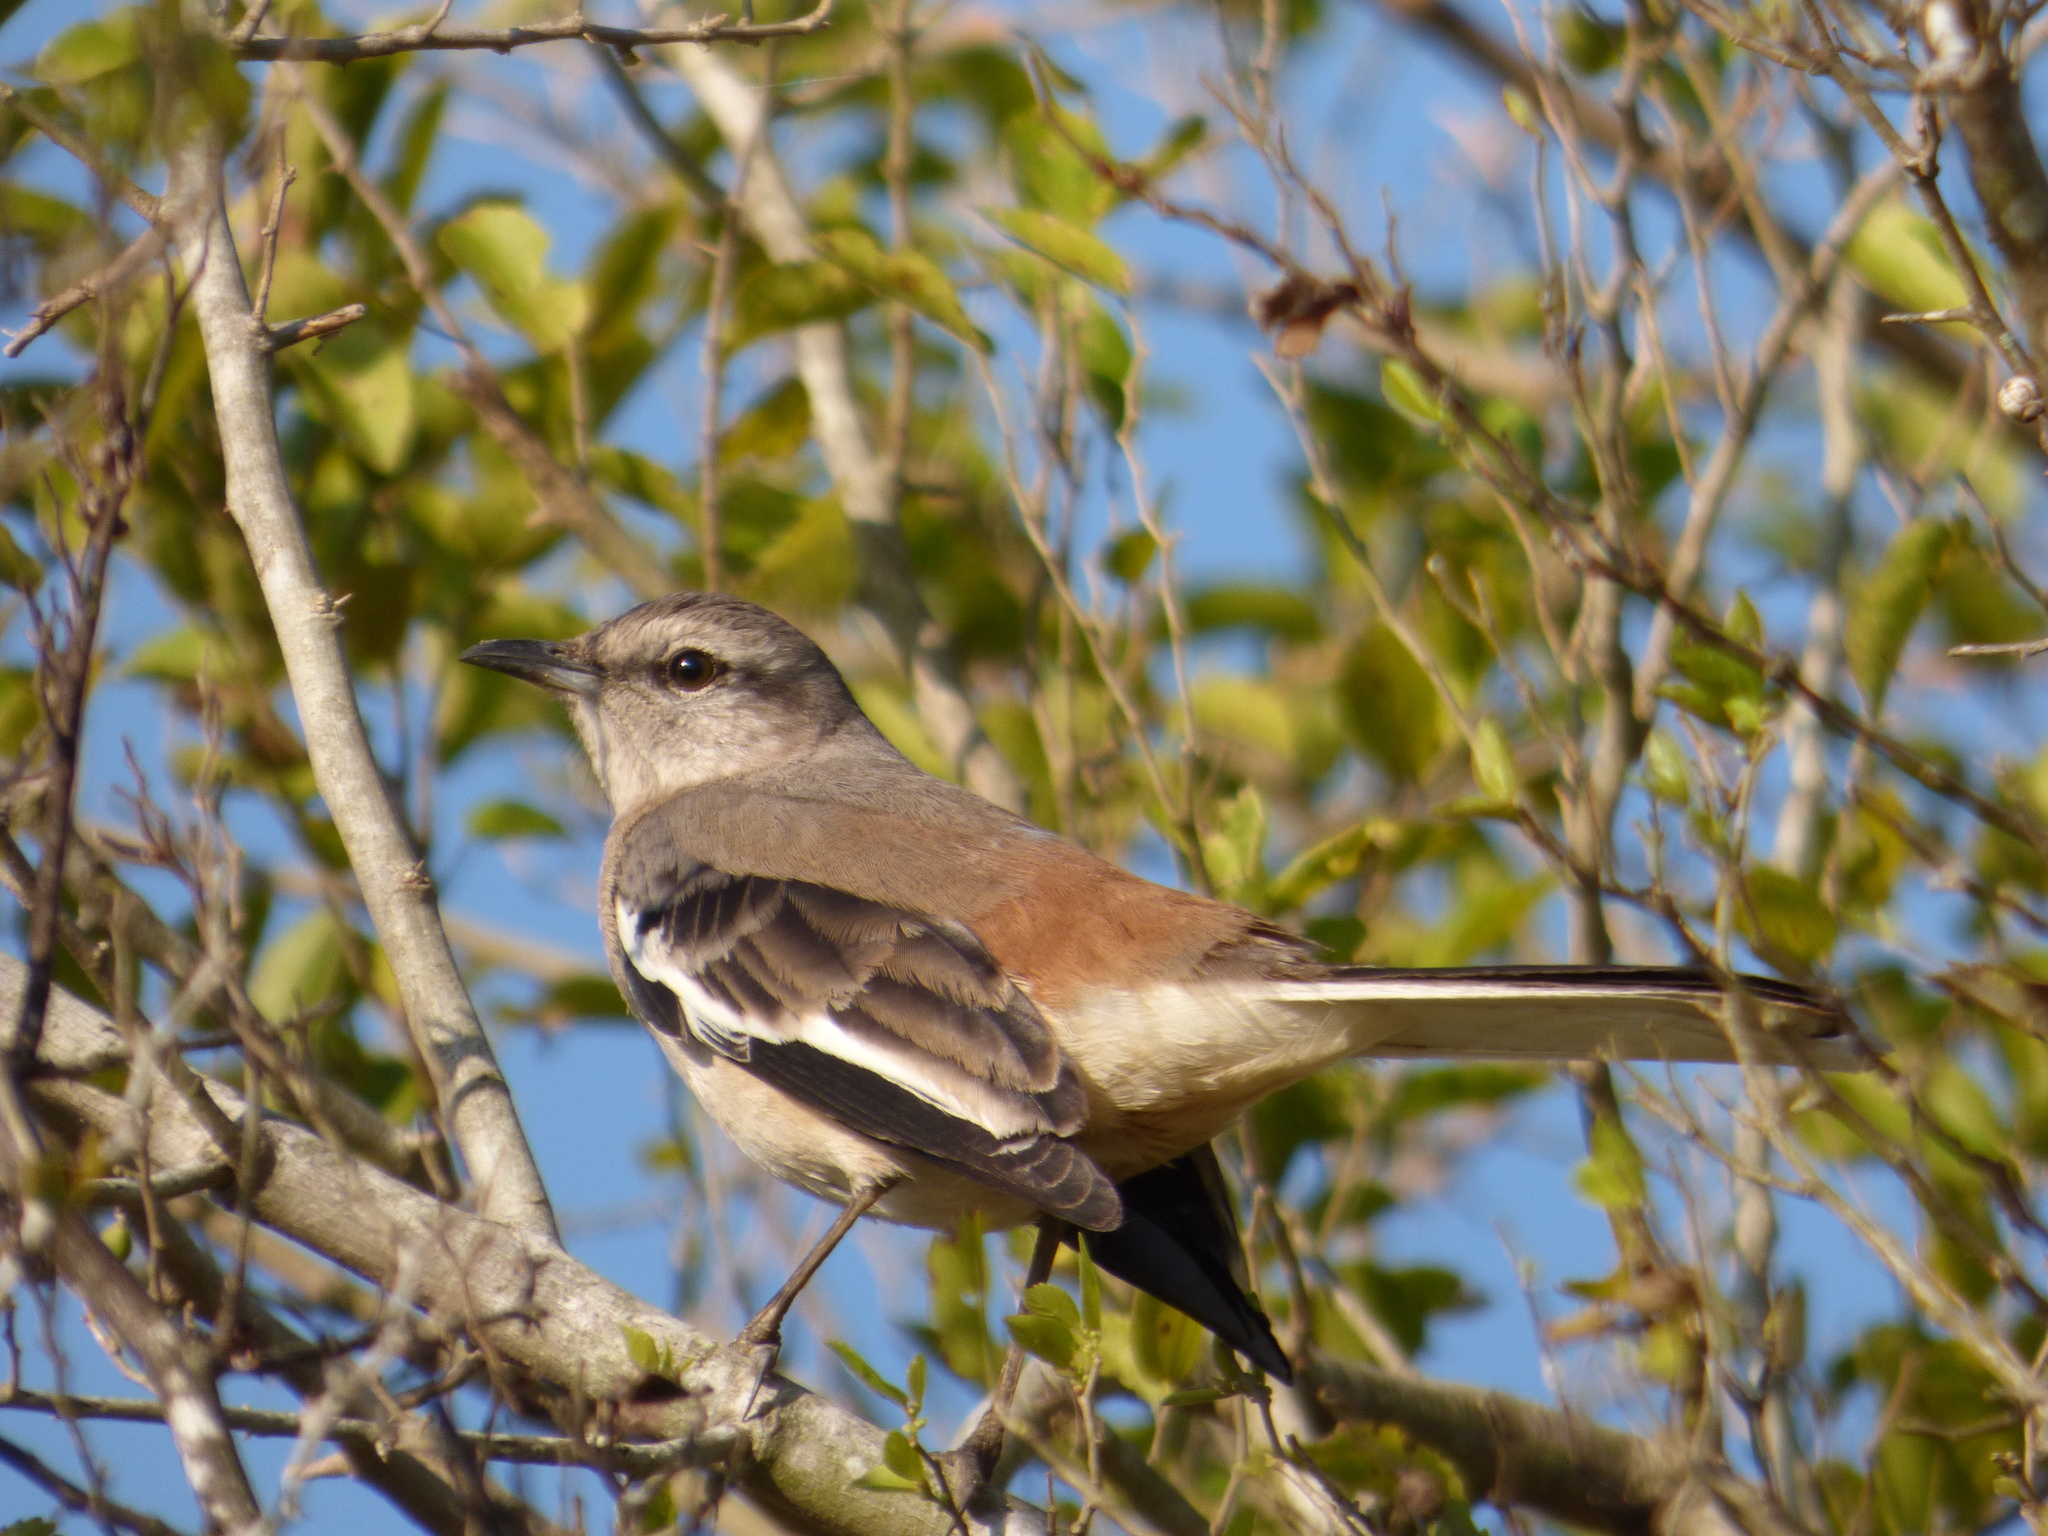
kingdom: Animalia
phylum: Chordata
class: Aves
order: Passeriformes
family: Mimidae
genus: Mimus
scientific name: Mimus triurus
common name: White-banded mockingbird
